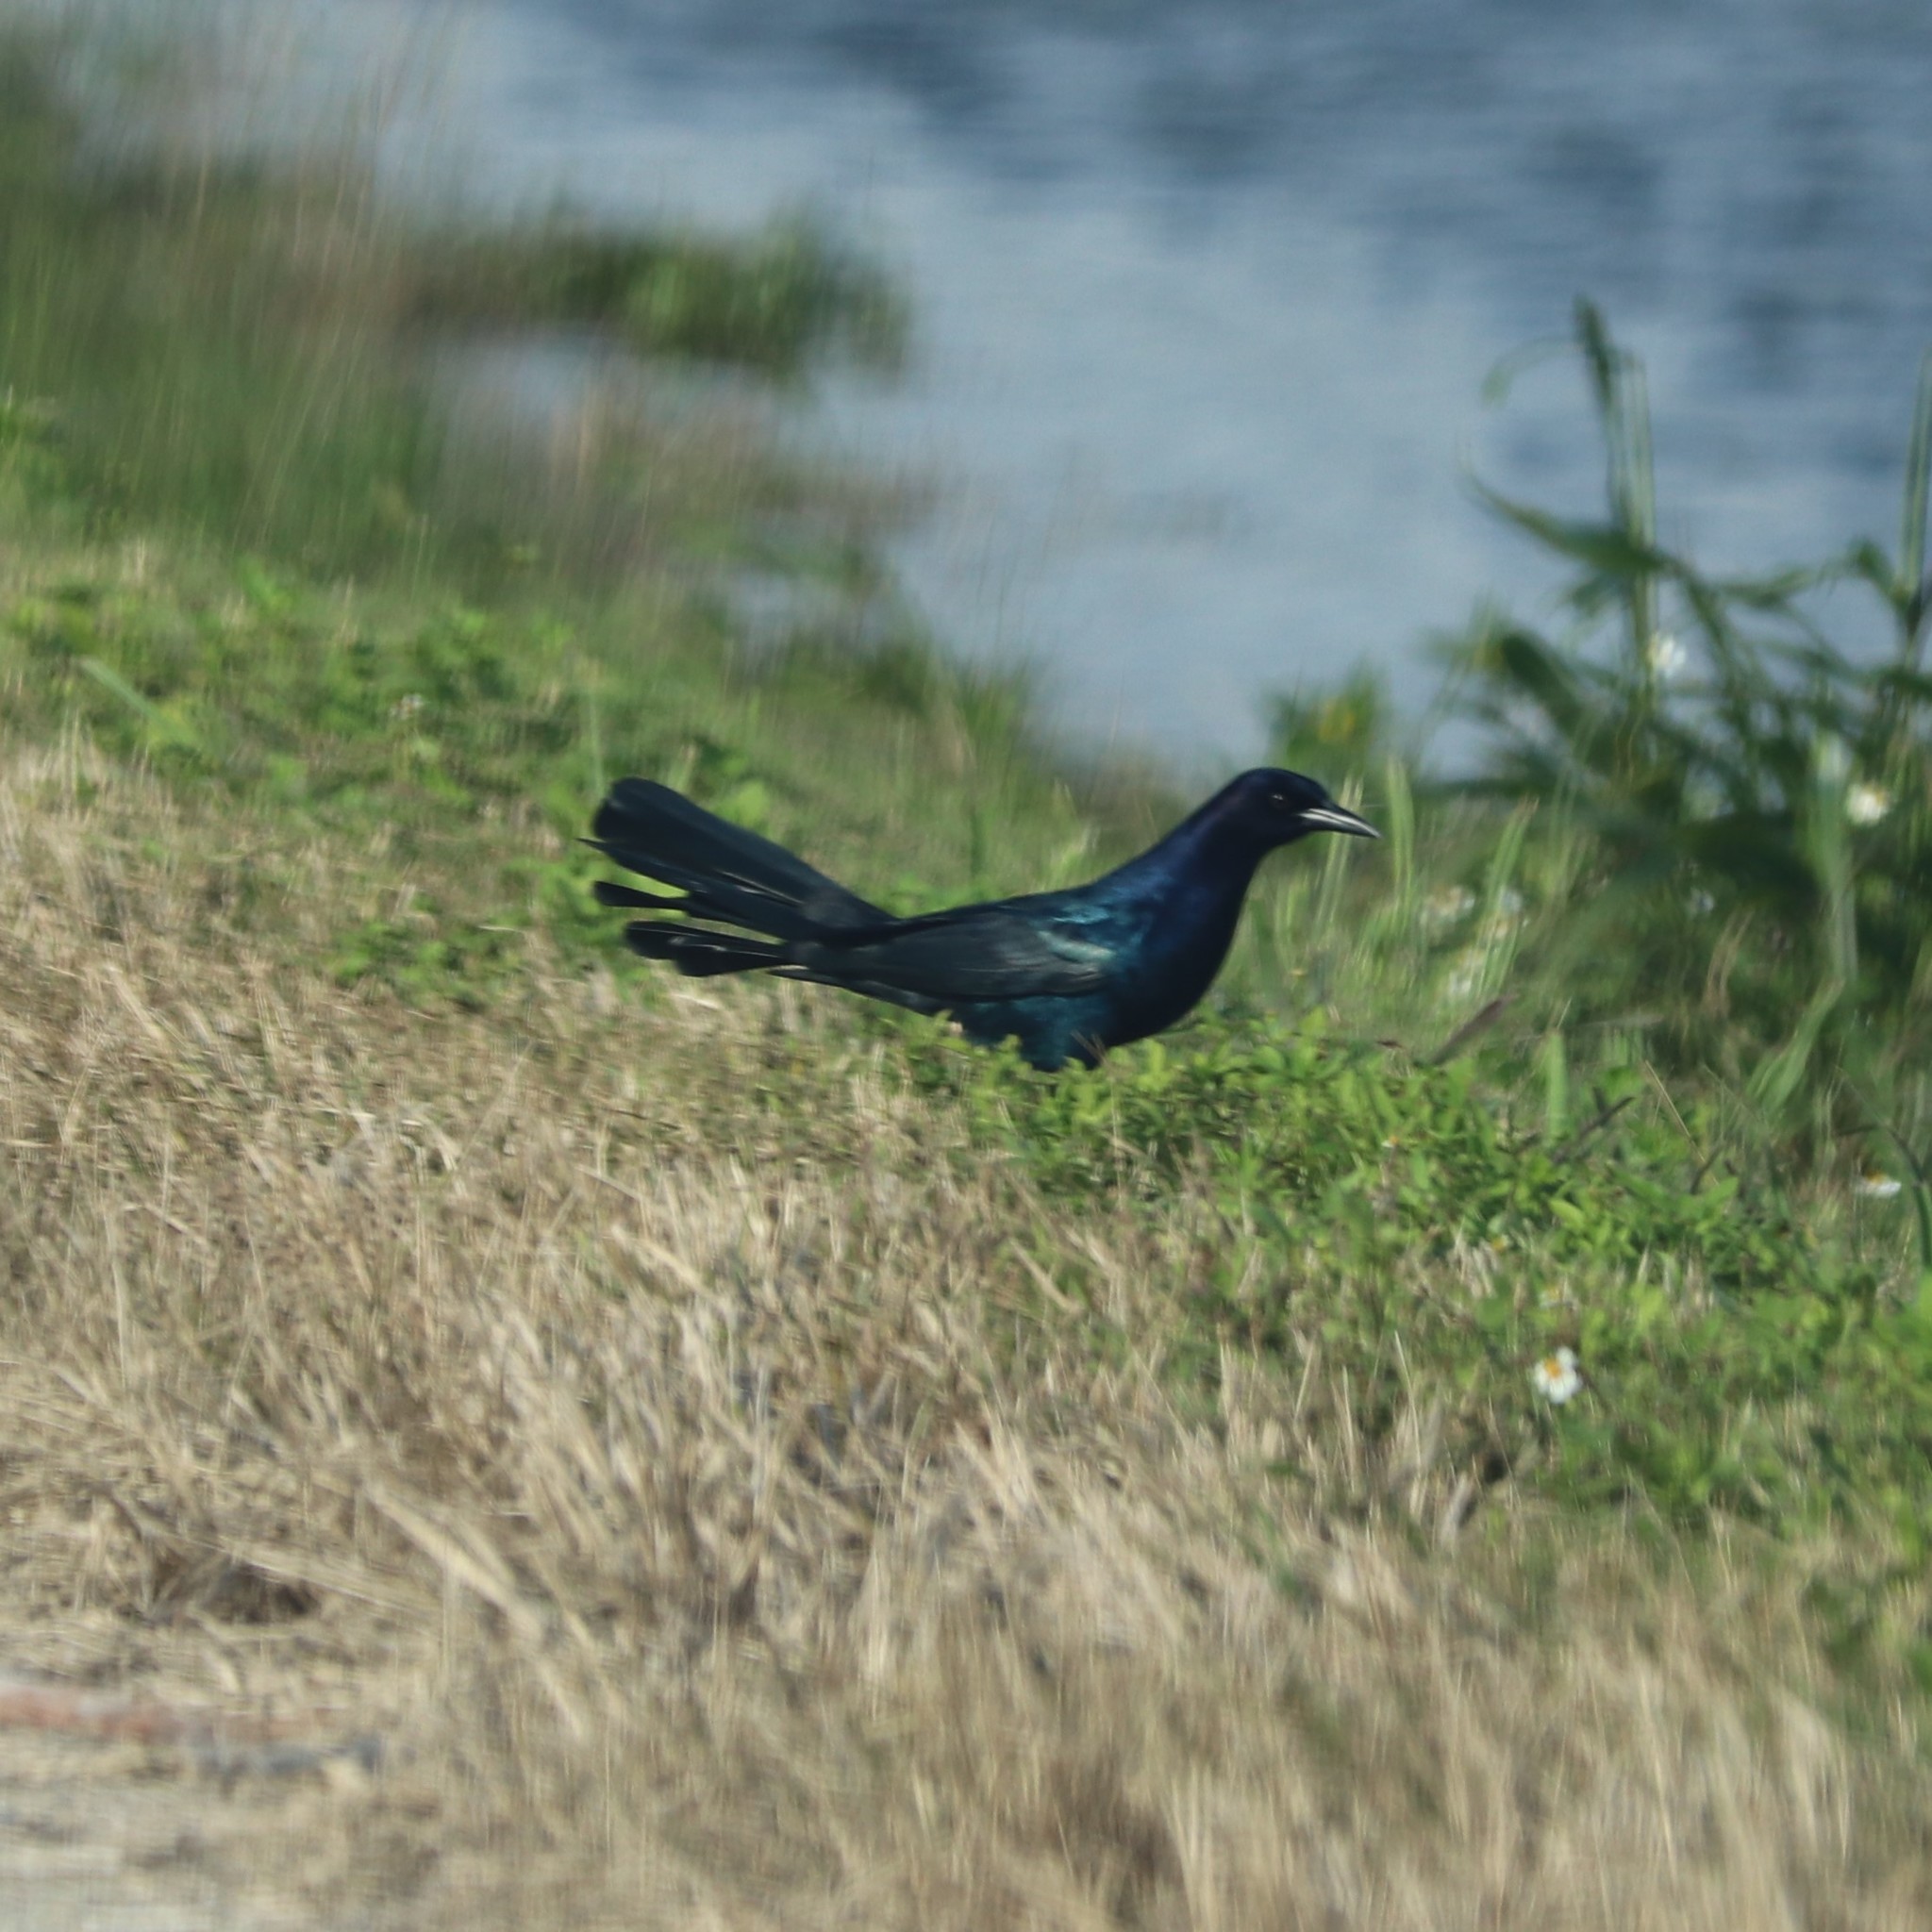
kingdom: Animalia
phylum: Chordata
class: Aves
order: Passeriformes
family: Icteridae
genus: Quiscalus
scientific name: Quiscalus major
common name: Boat-tailed grackle
